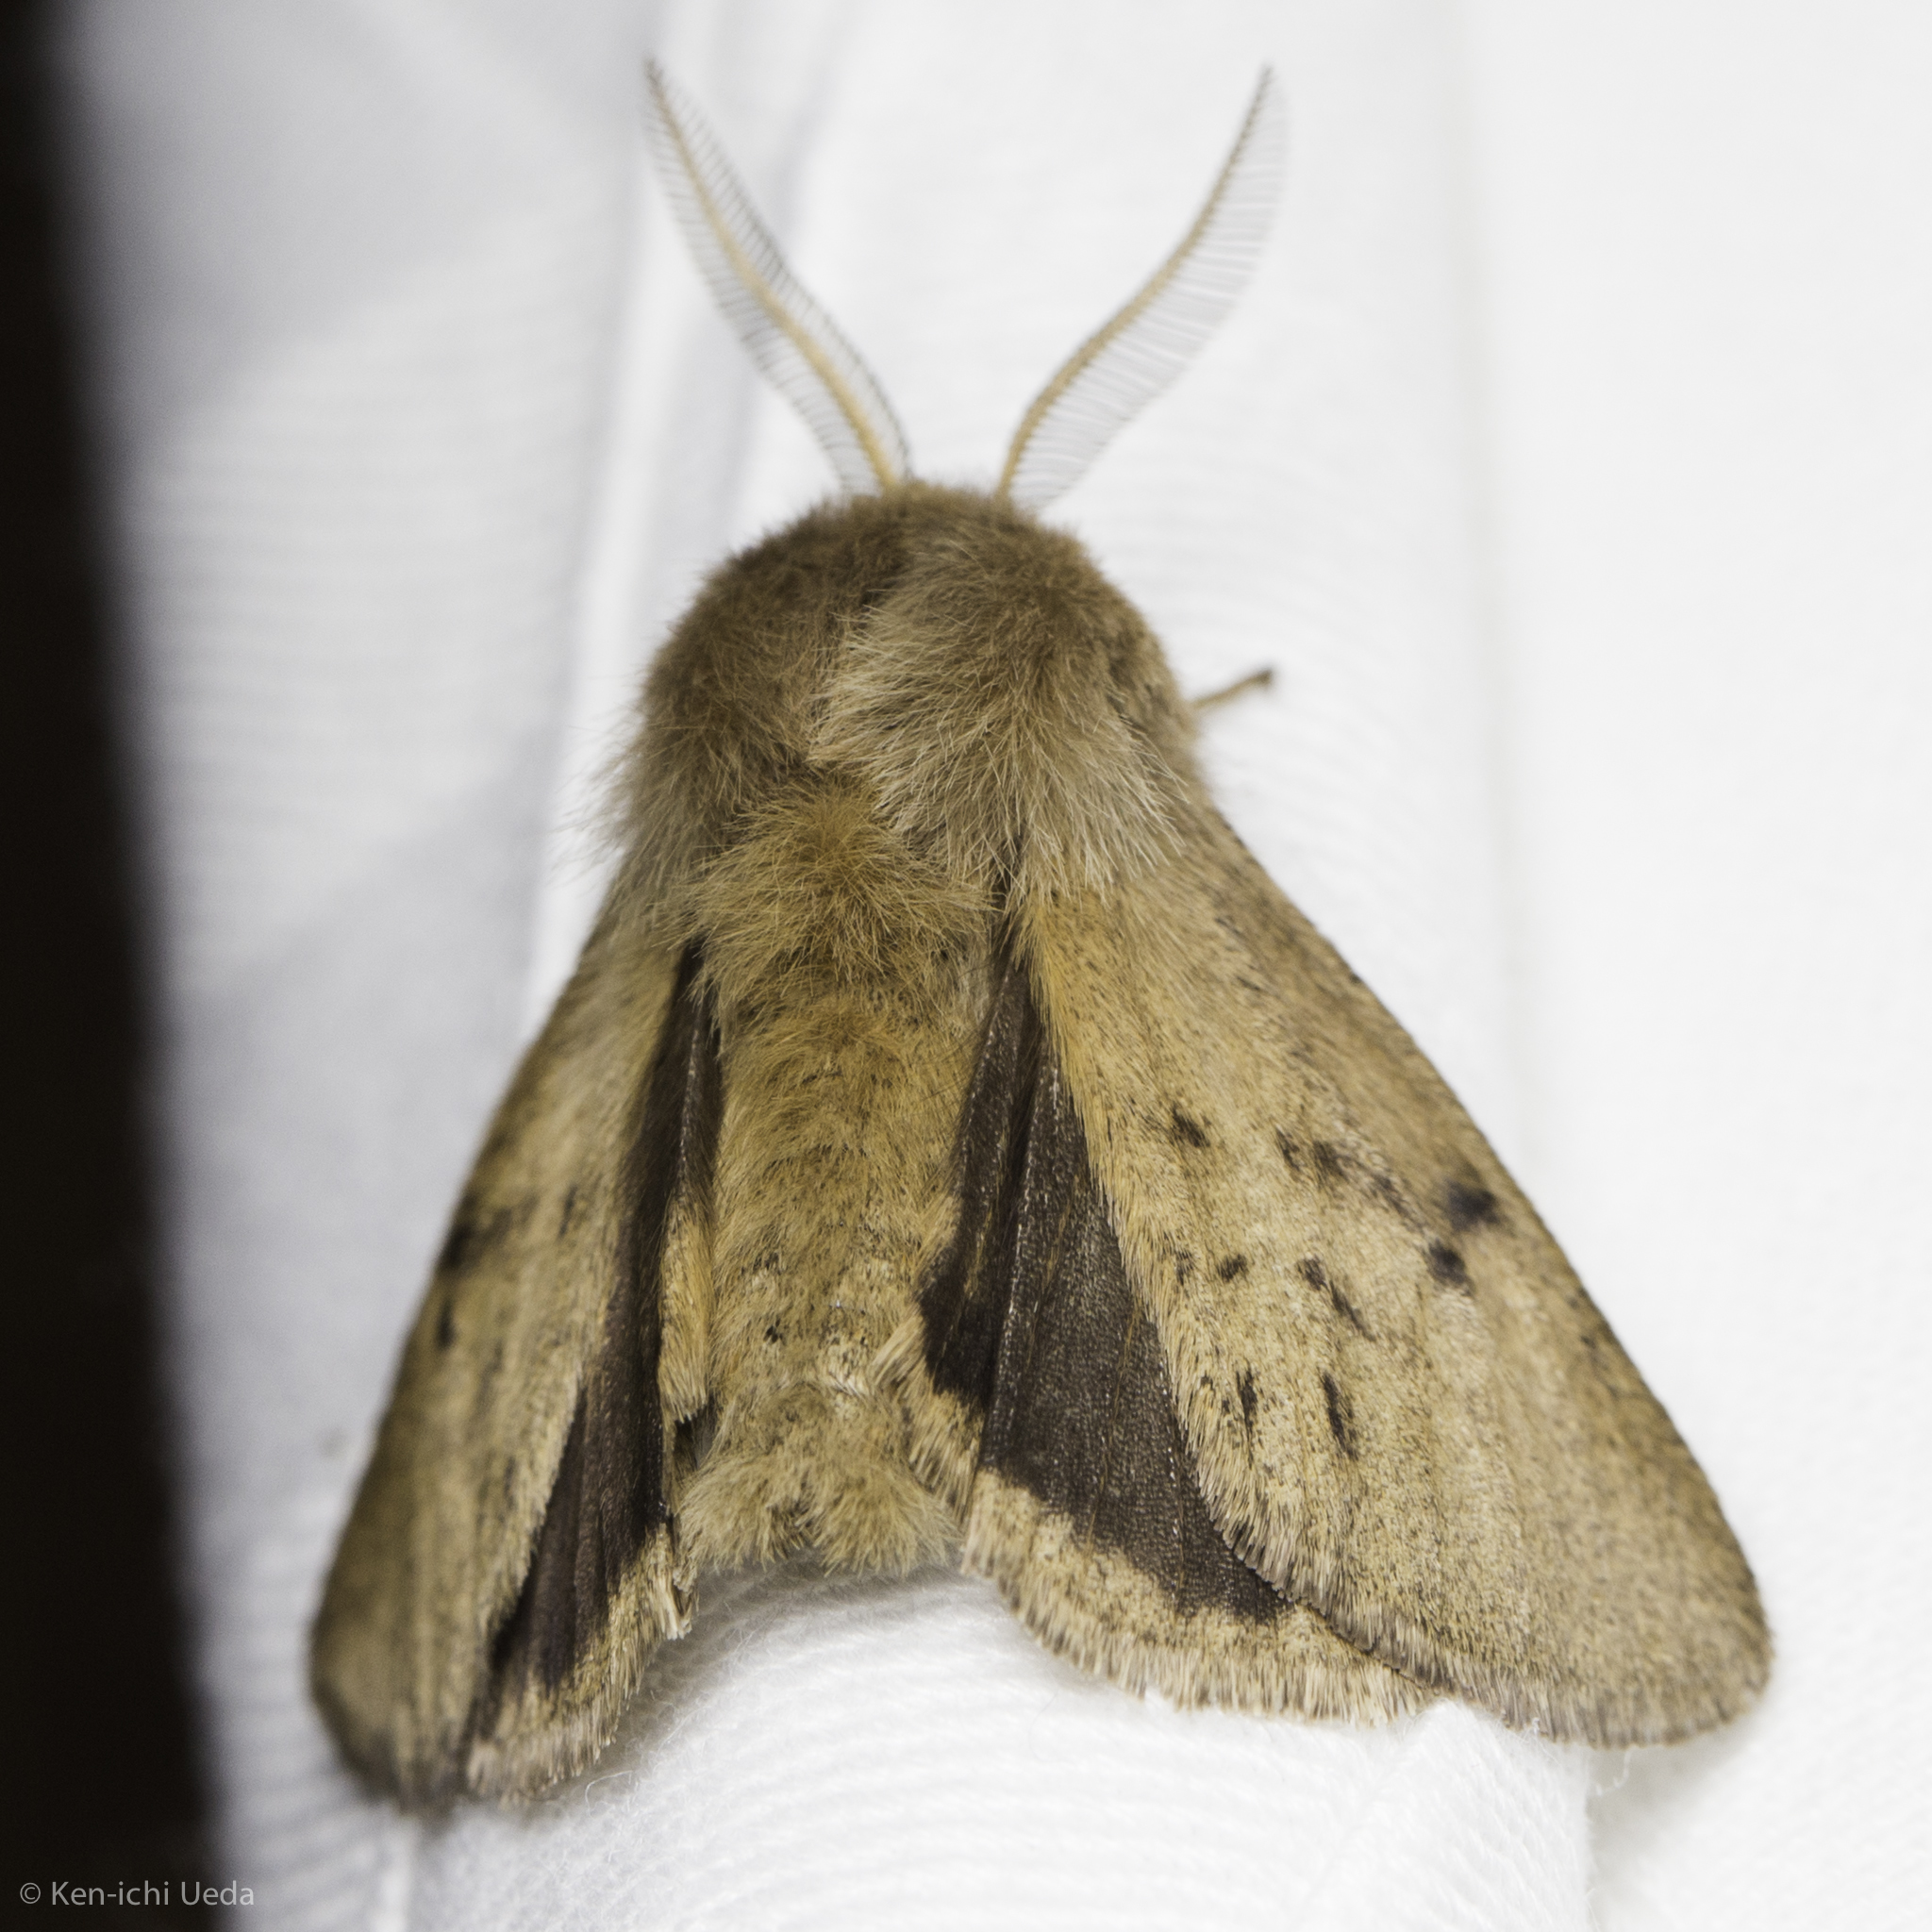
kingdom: Animalia
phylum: Arthropoda
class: Insecta
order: Lepidoptera
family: Erebidae
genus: Spilosoma
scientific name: Spilosoma vagans
